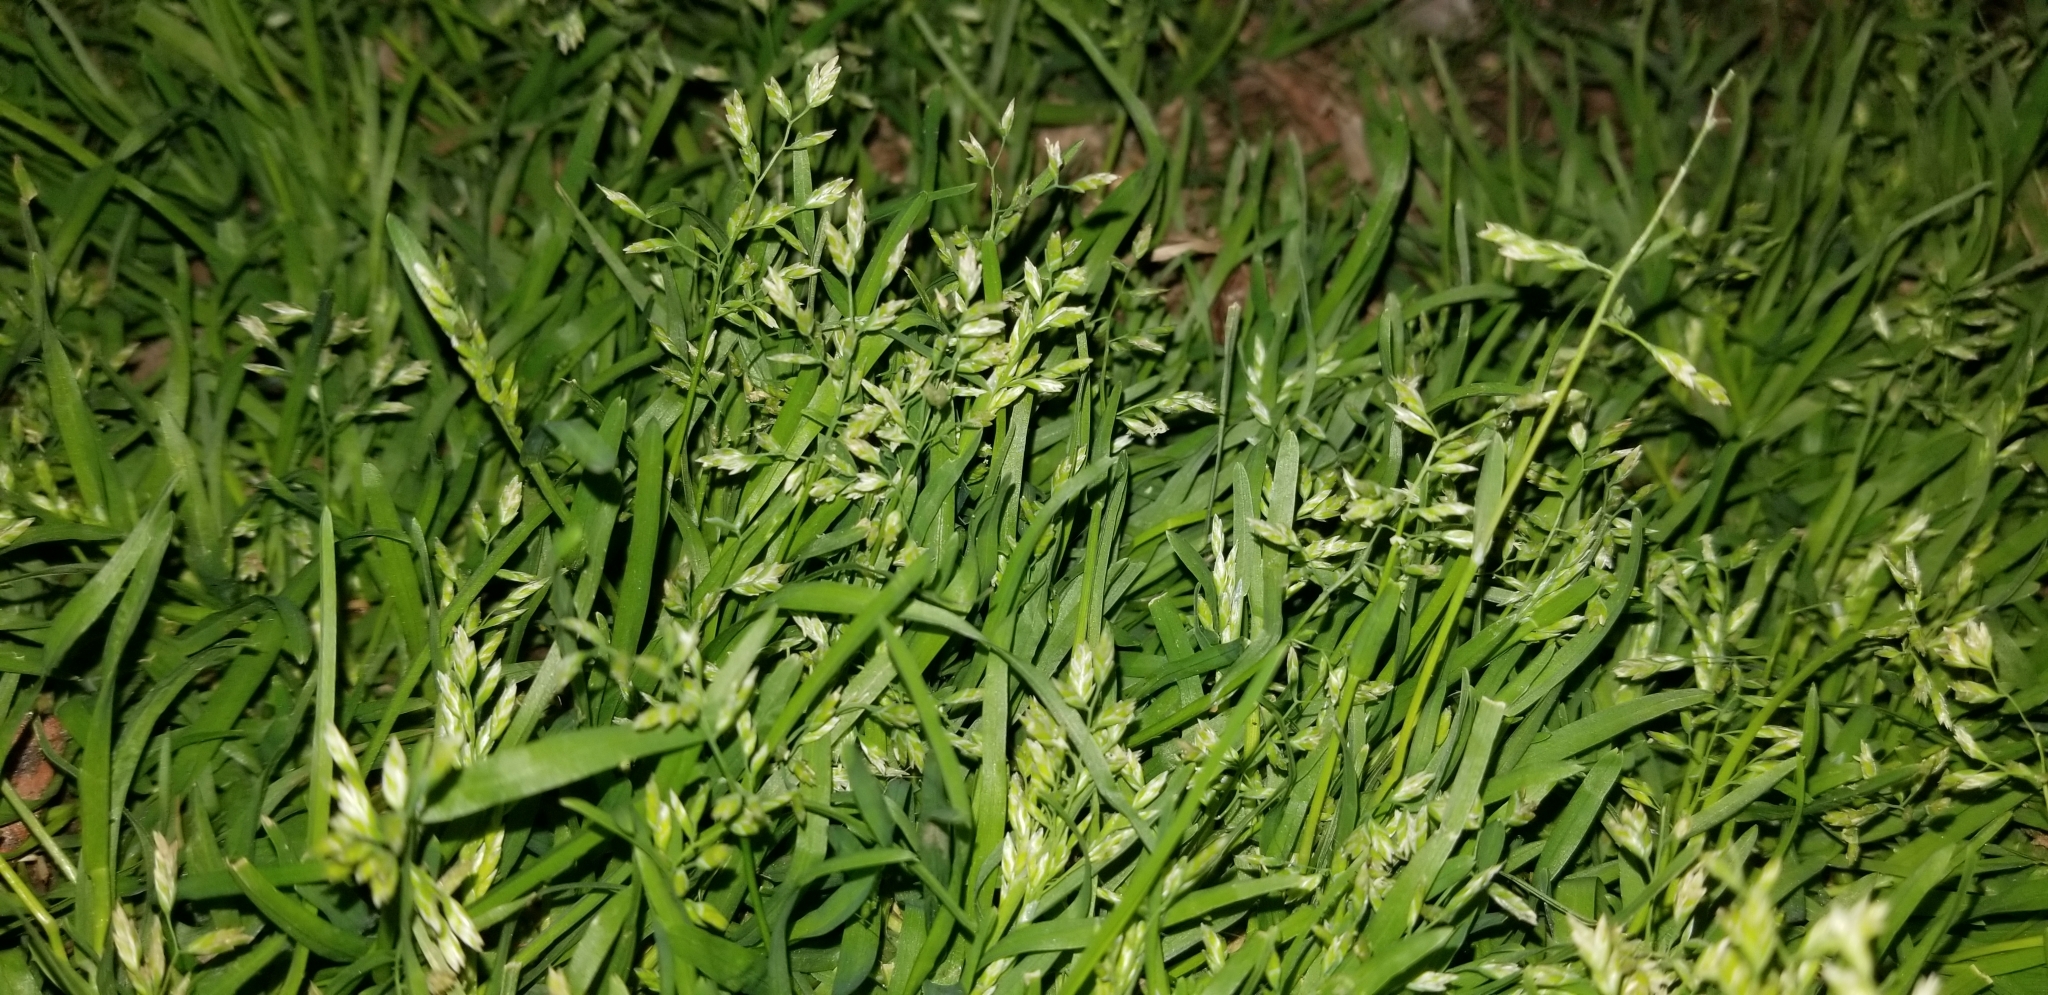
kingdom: Plantae
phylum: Tracheophyta
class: Liliopsida
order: Poales
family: Poaceae
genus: Poa
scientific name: Poa annua
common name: Annual bluegrass
